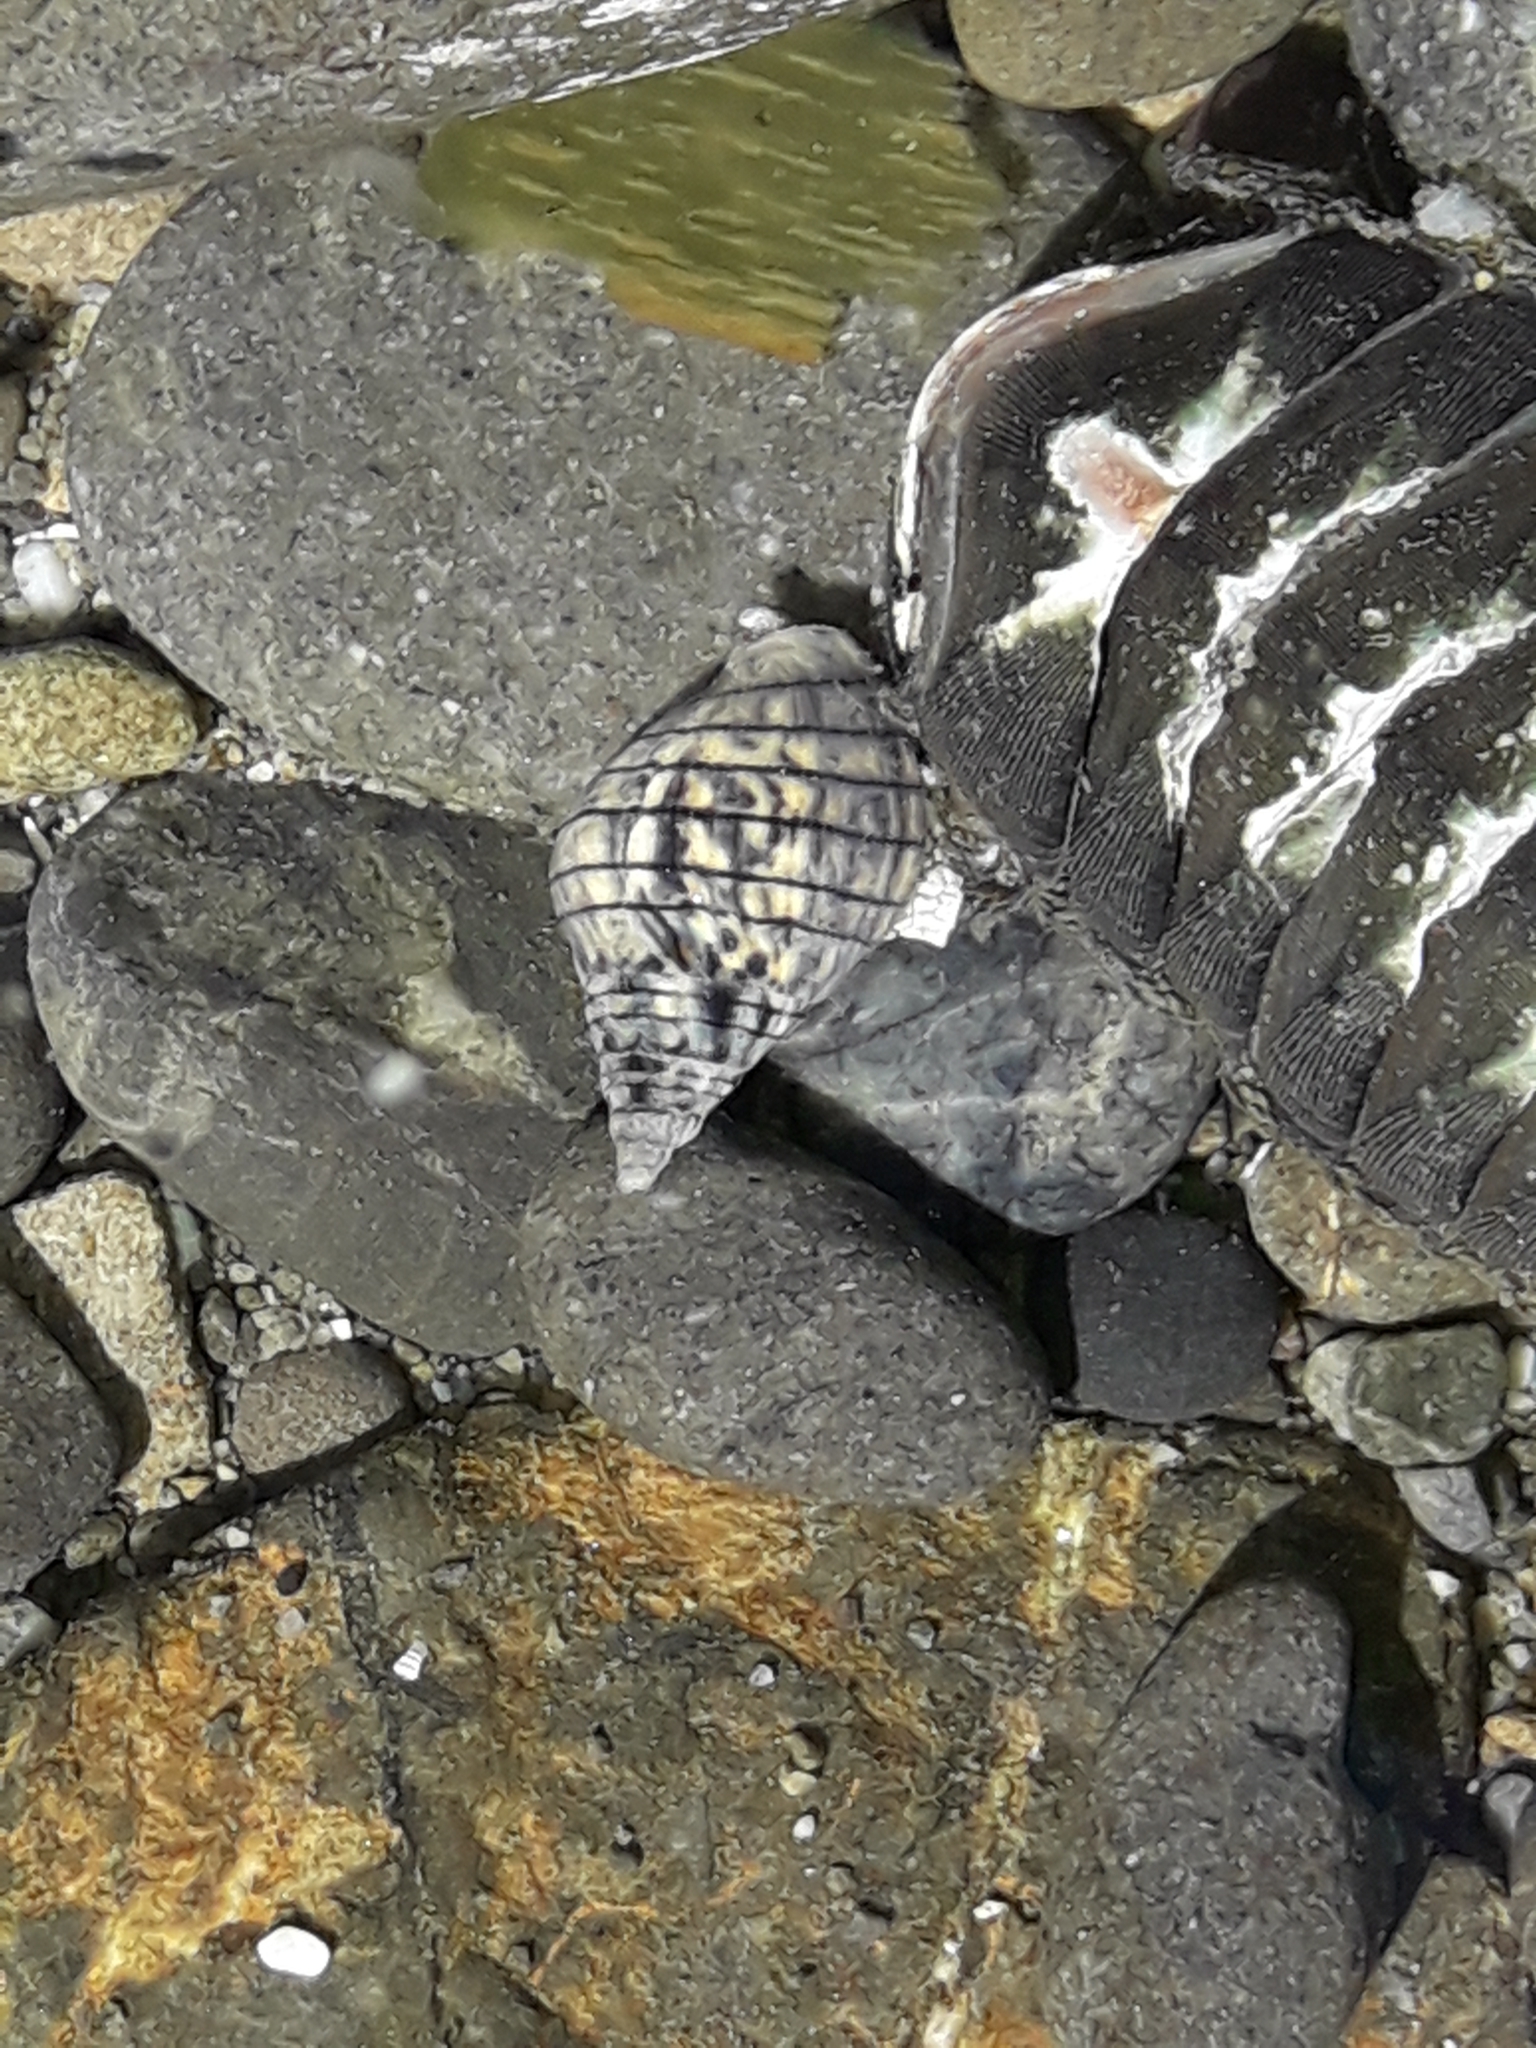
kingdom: Animalia
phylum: Mollusca
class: Gastropoda
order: Neogastropoda
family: Cominellidae
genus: Cominella
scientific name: Cominella virgata
